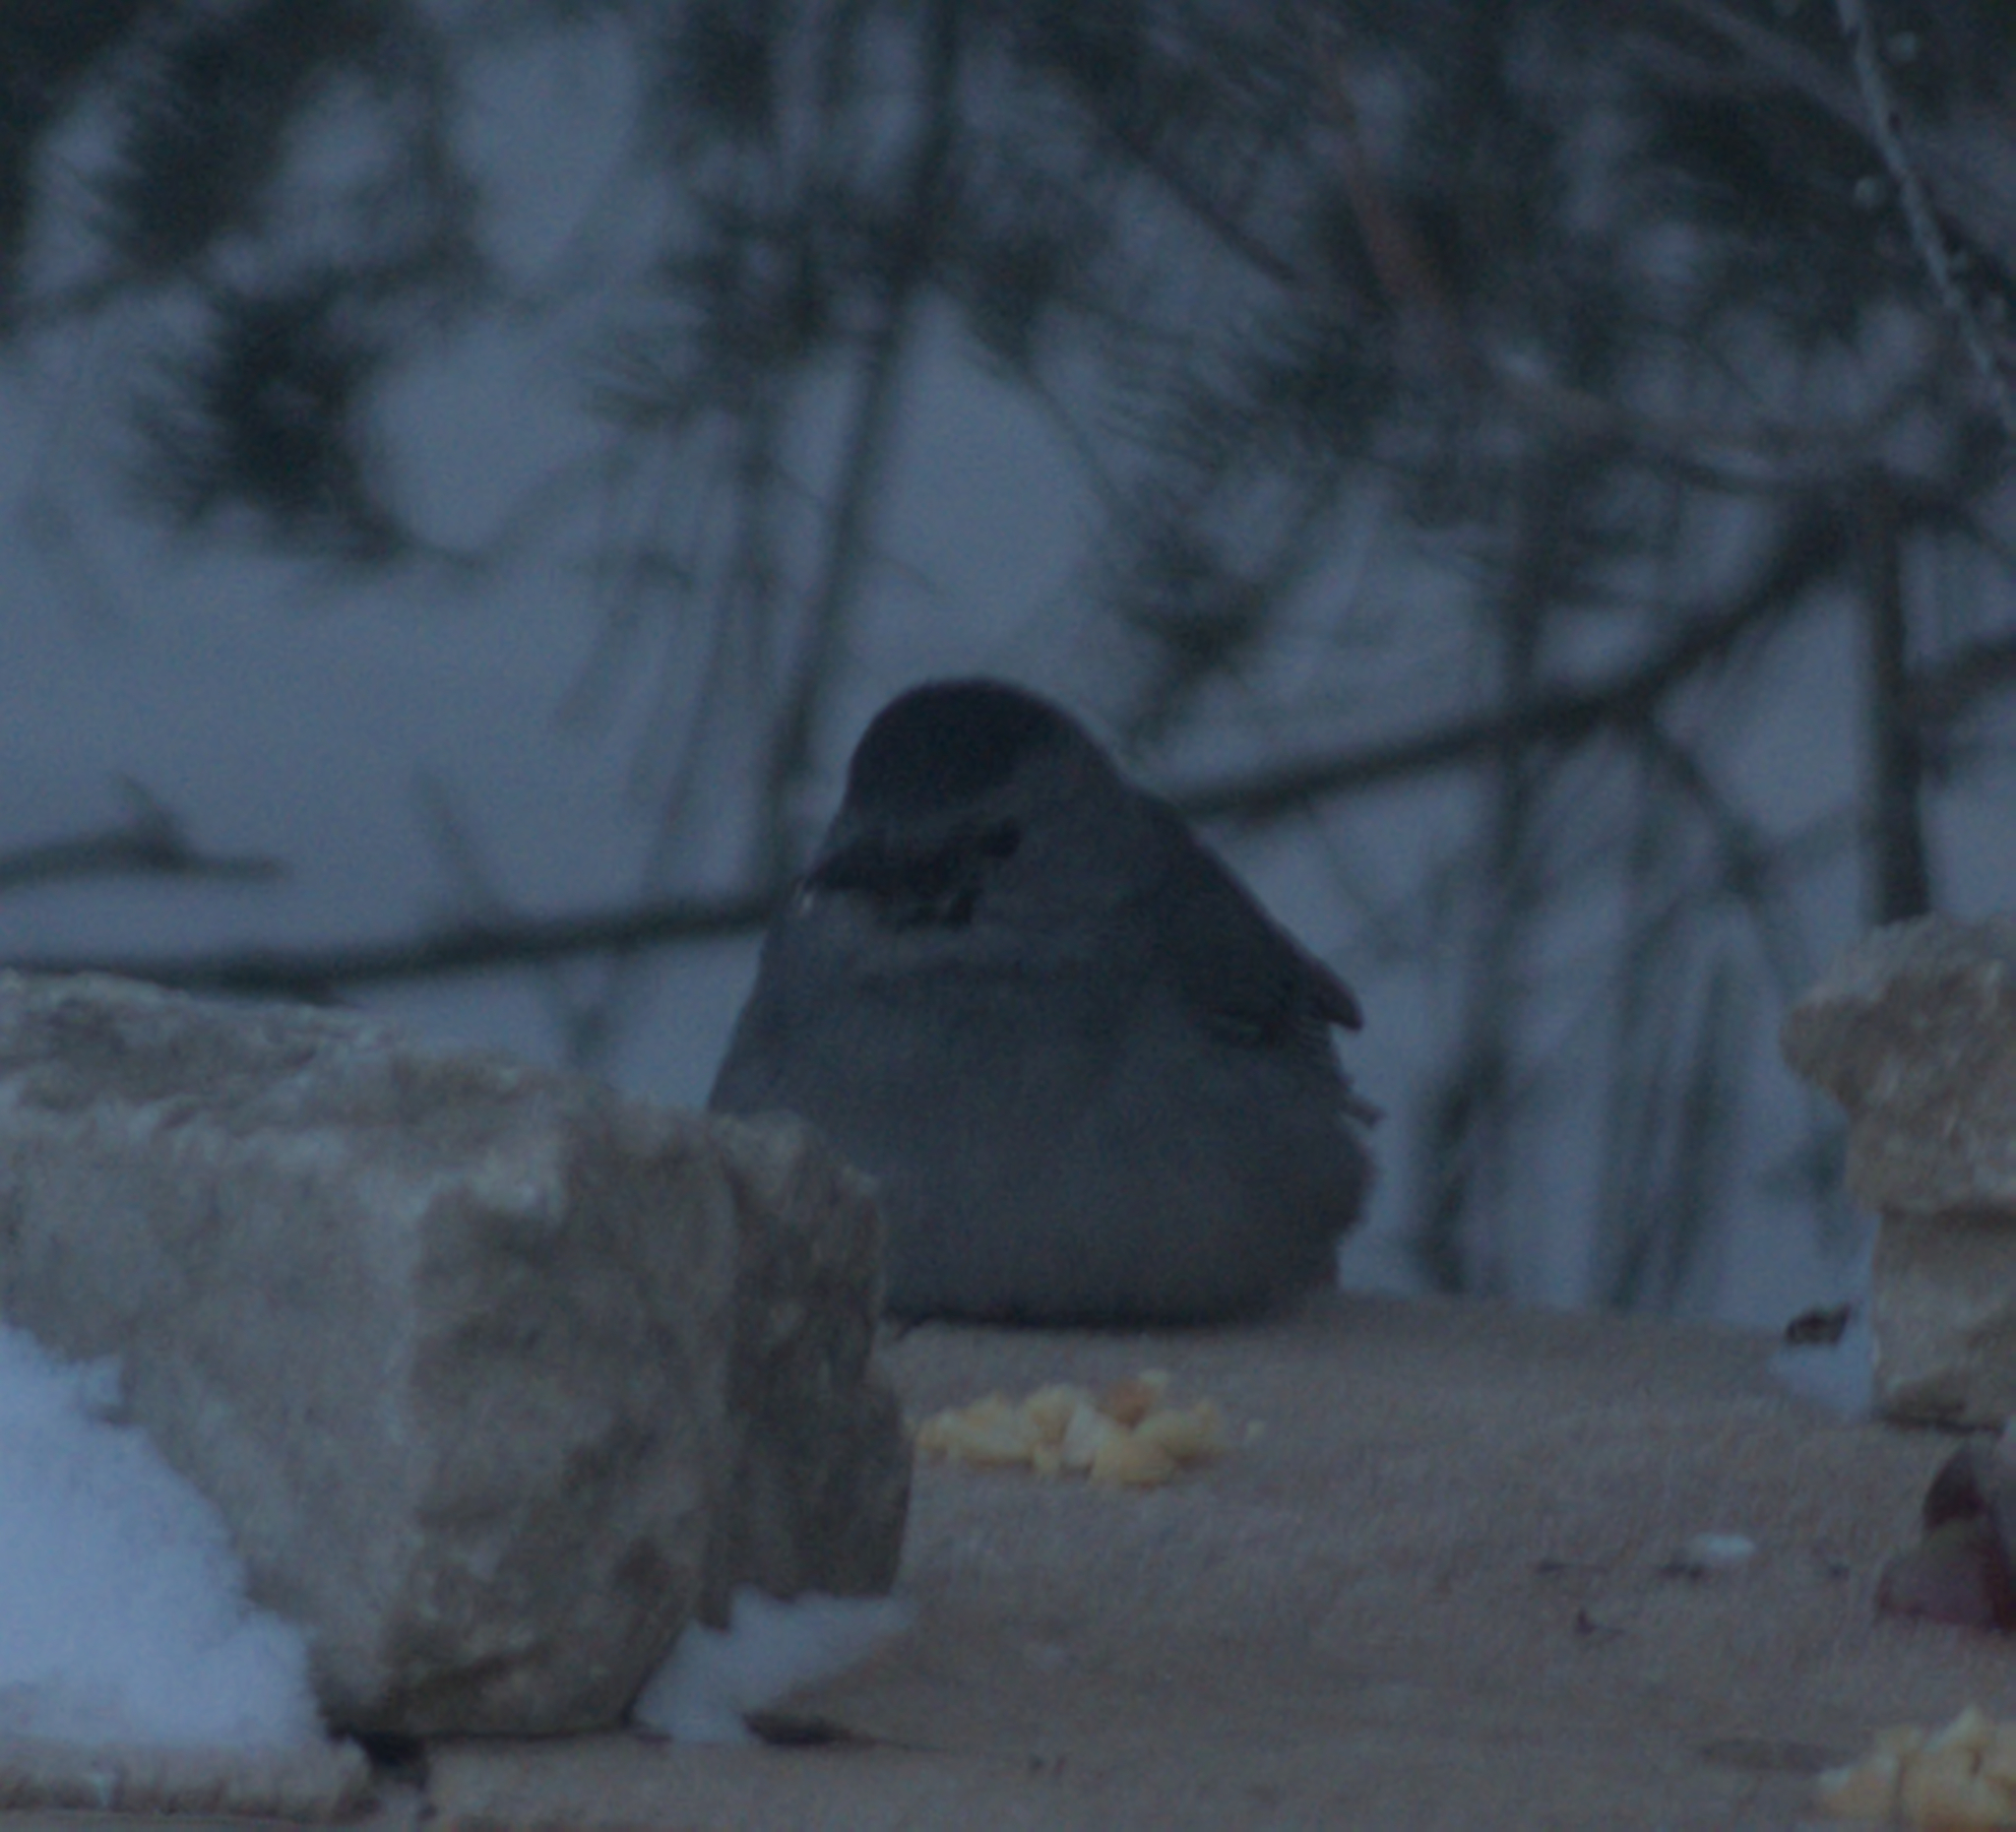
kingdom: Animalia
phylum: Chordata
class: Aves
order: Passeriformes
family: Mimidae
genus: Dumetella
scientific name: Dumetella carolinensis
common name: Gray catbird
